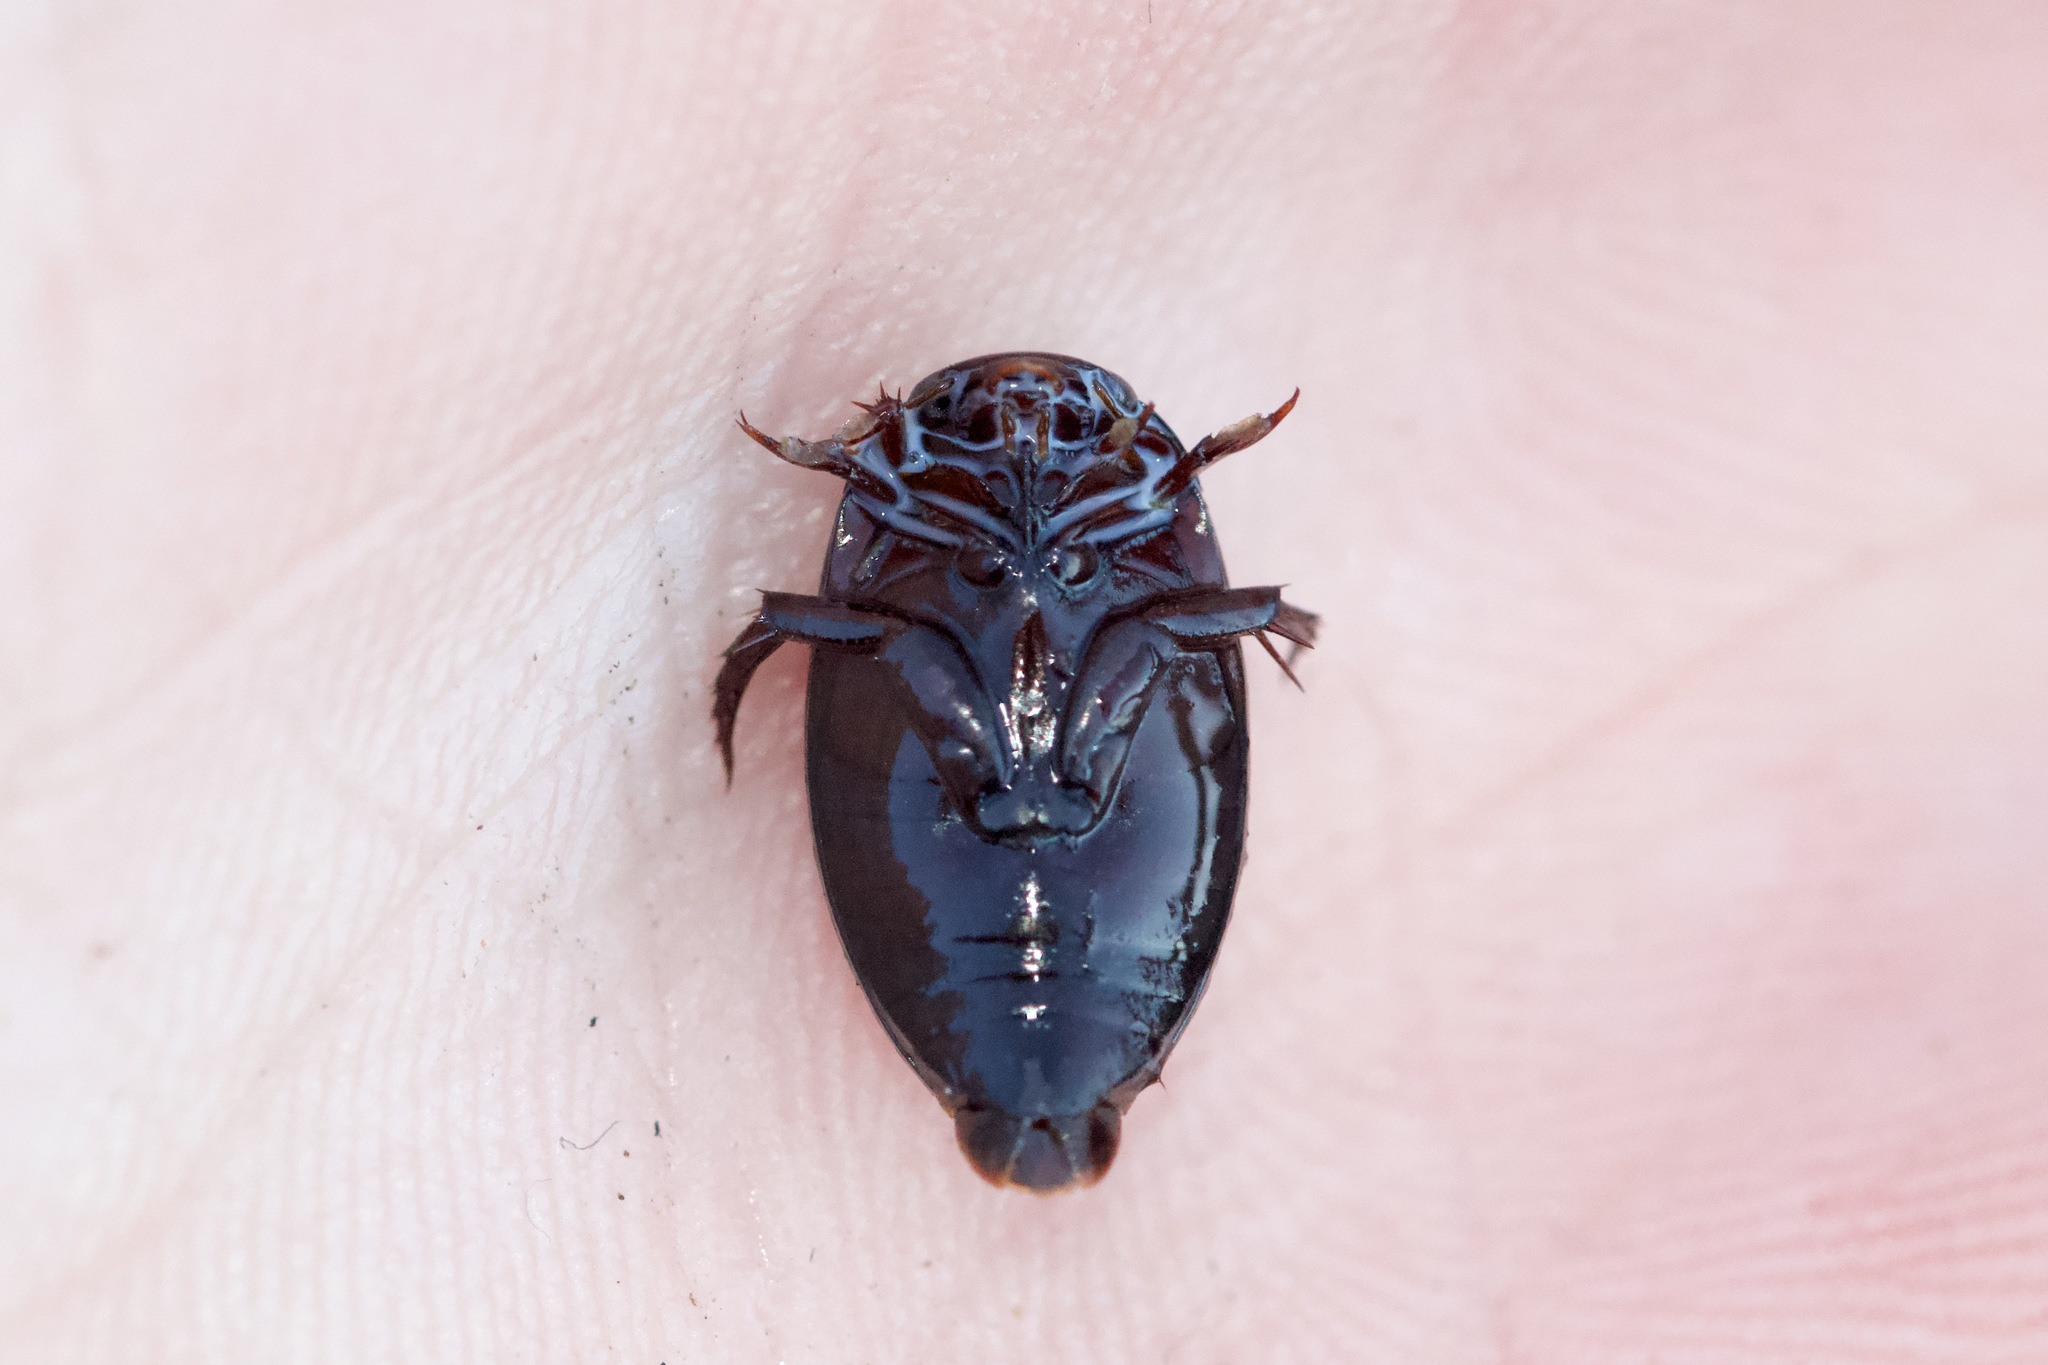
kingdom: Animalia
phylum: Arthropoda
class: Insecta
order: Coleoptera
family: Dytiscidae
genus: Ilybius
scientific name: Ilybius
